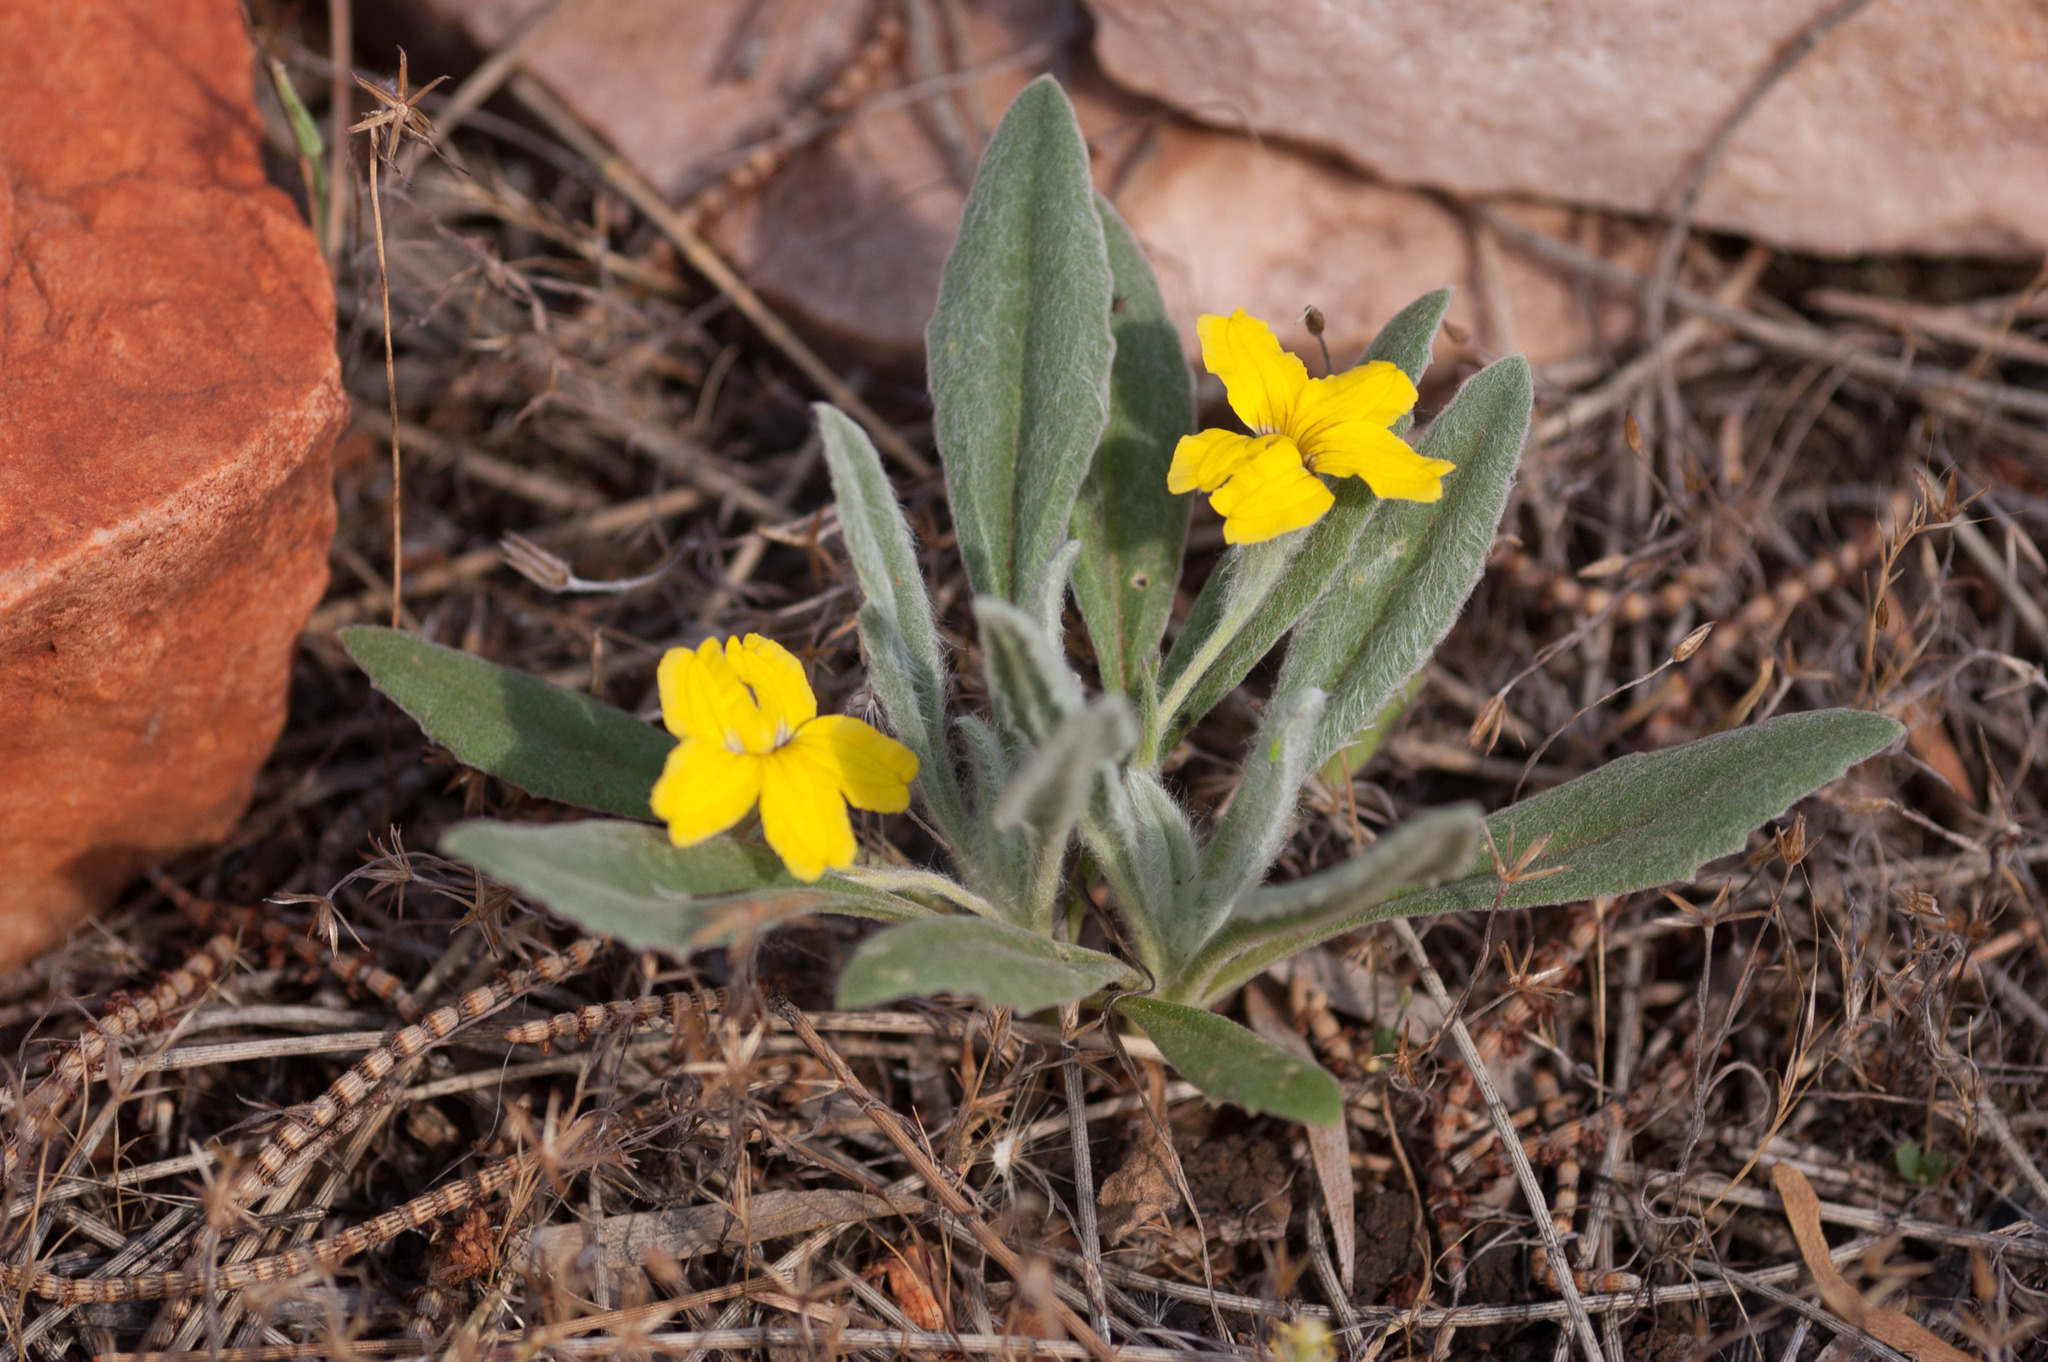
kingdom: Plantae
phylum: Tracheophyta
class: Magnoliopsida
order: Asterales
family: Goodeniaceae
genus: Goodenia
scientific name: Goodenia willisiana
